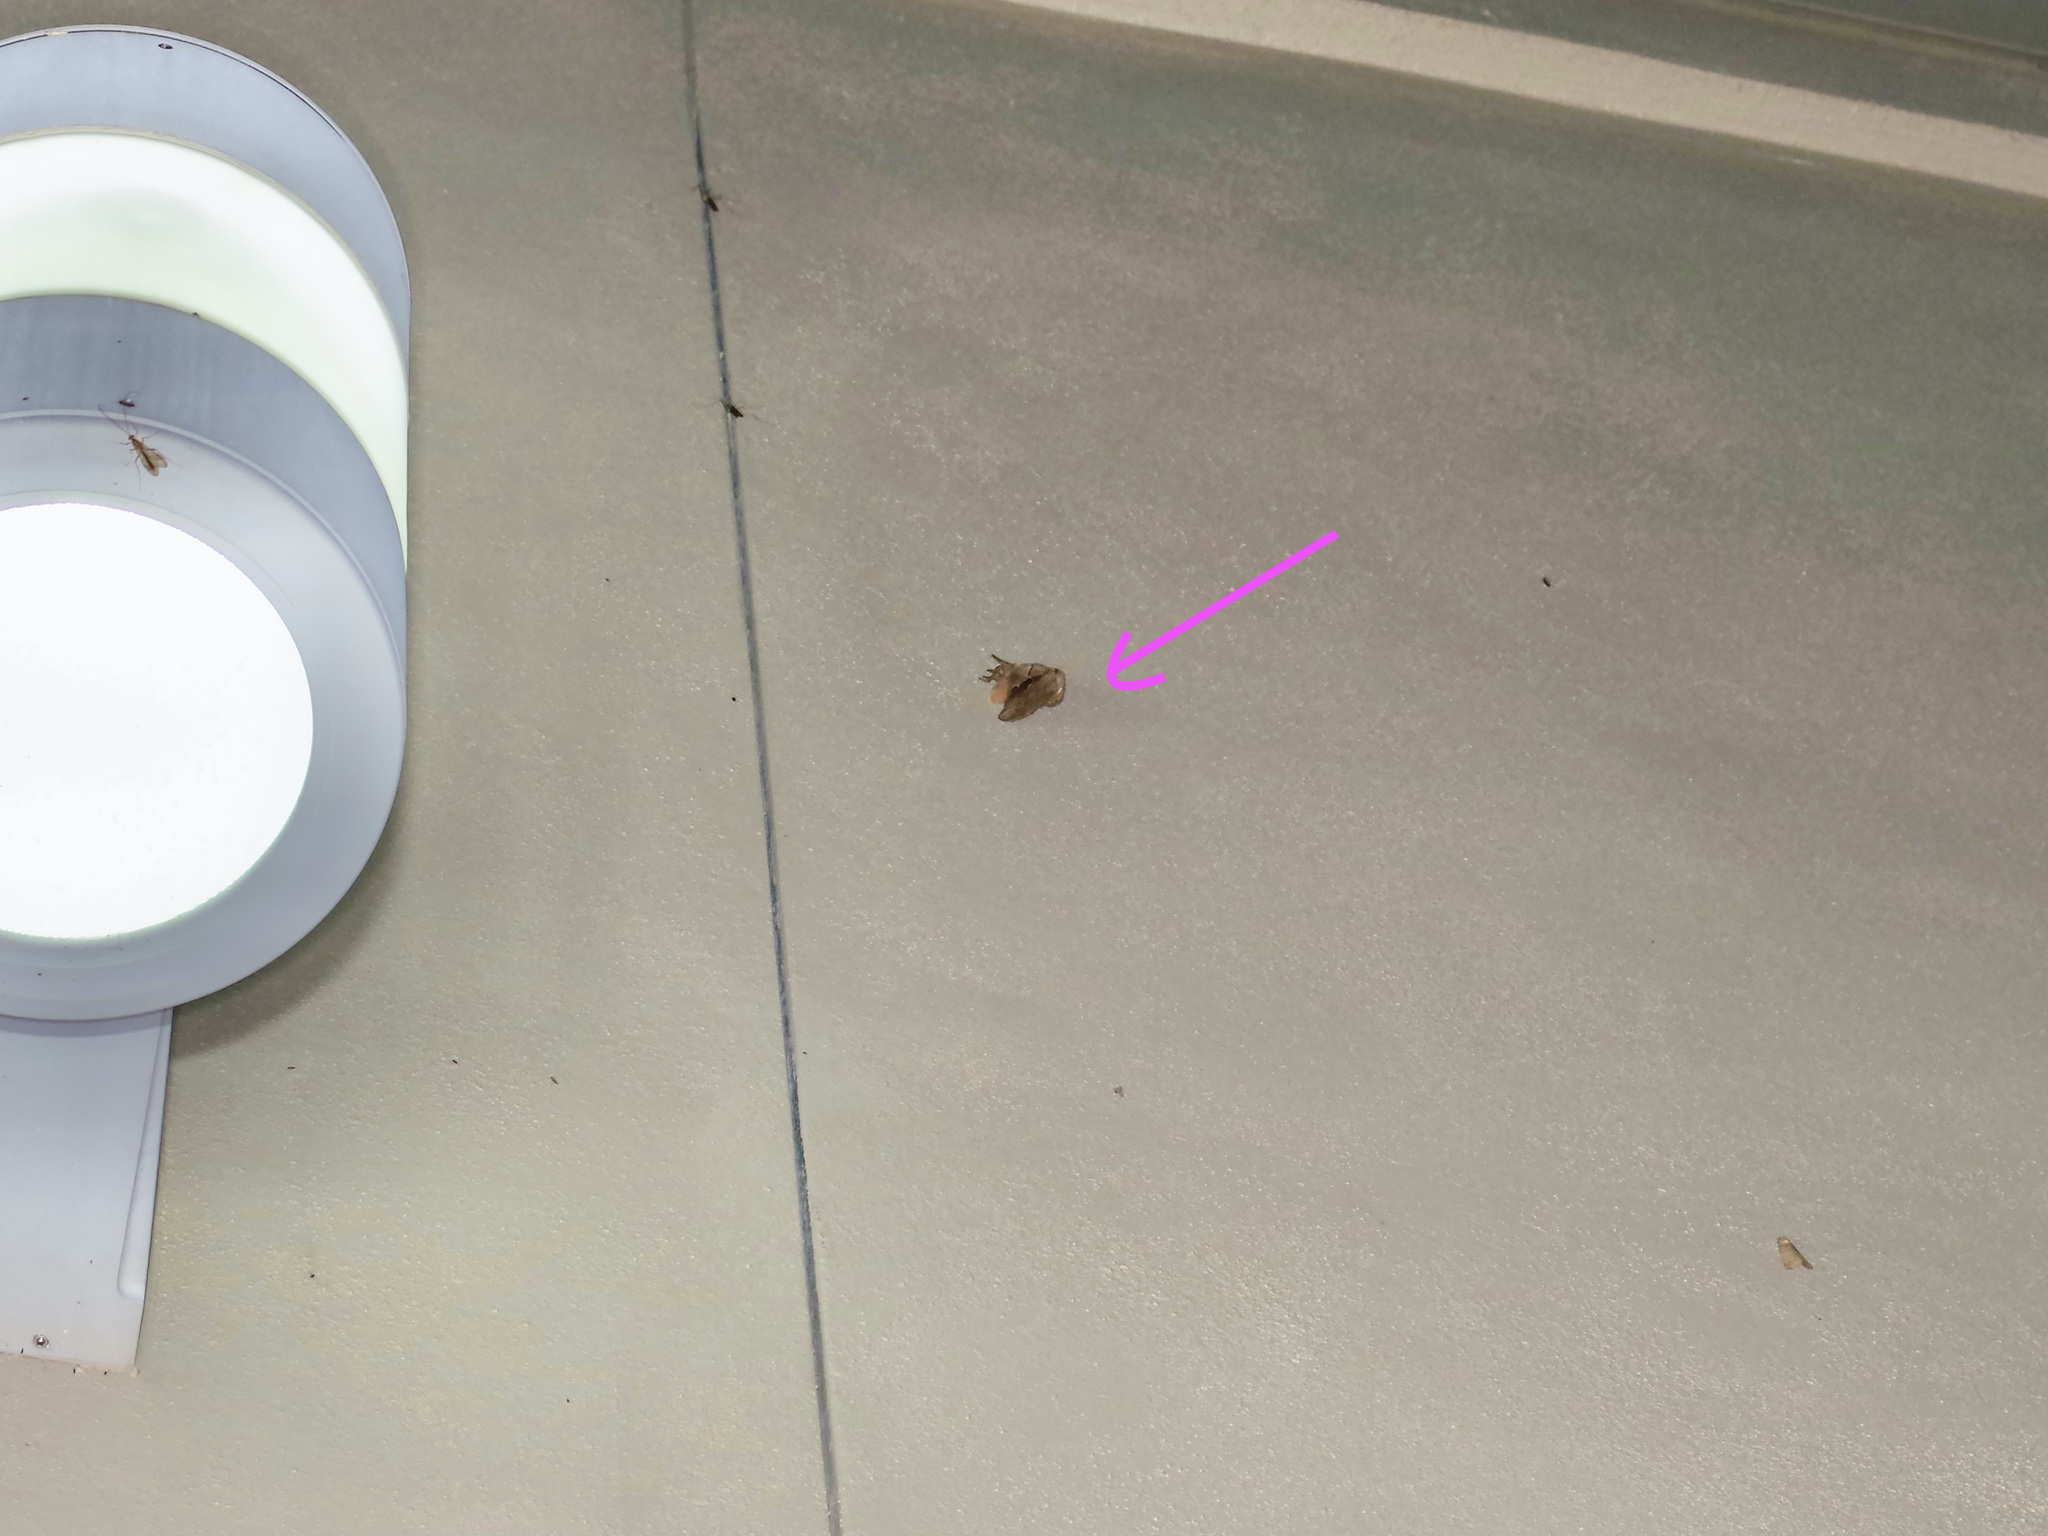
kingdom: Animalia
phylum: Arthropoda
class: Insecta
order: Lepidoptera
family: Saturniidae
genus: Antheraea
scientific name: Antheraea polyphemus
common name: Polyphemus moth
